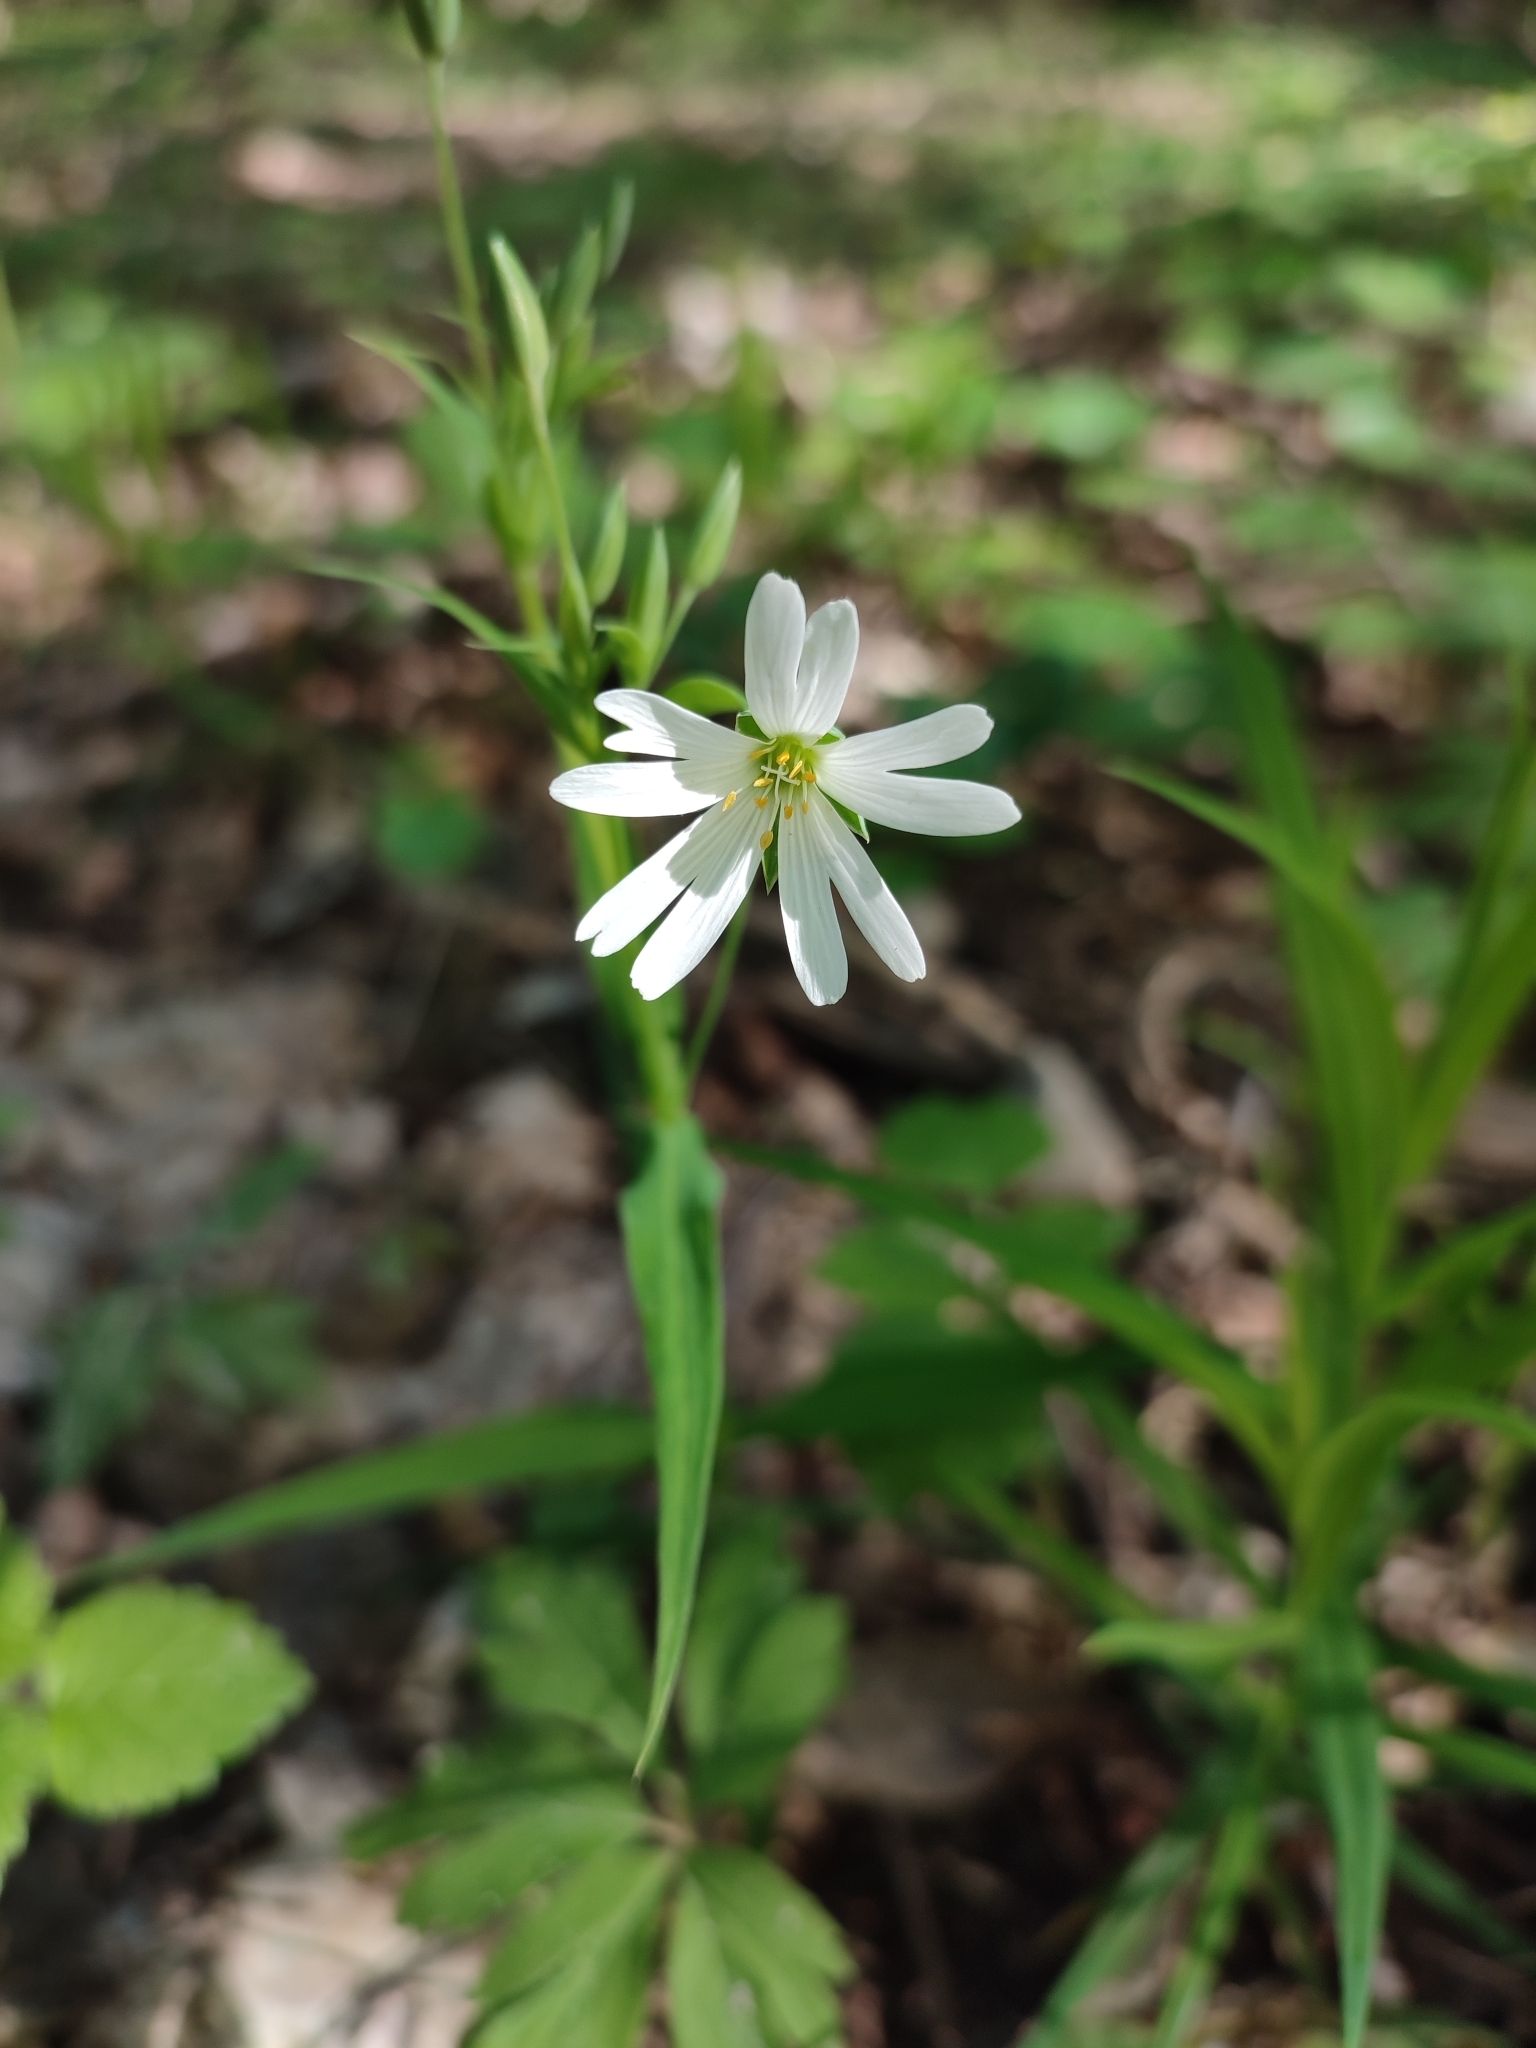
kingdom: Plantae
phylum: Tracheophyta
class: Magnoliopsida
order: Caryophyllales
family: Caryophyllaceae
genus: Rabelera
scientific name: Rabelera holostea
